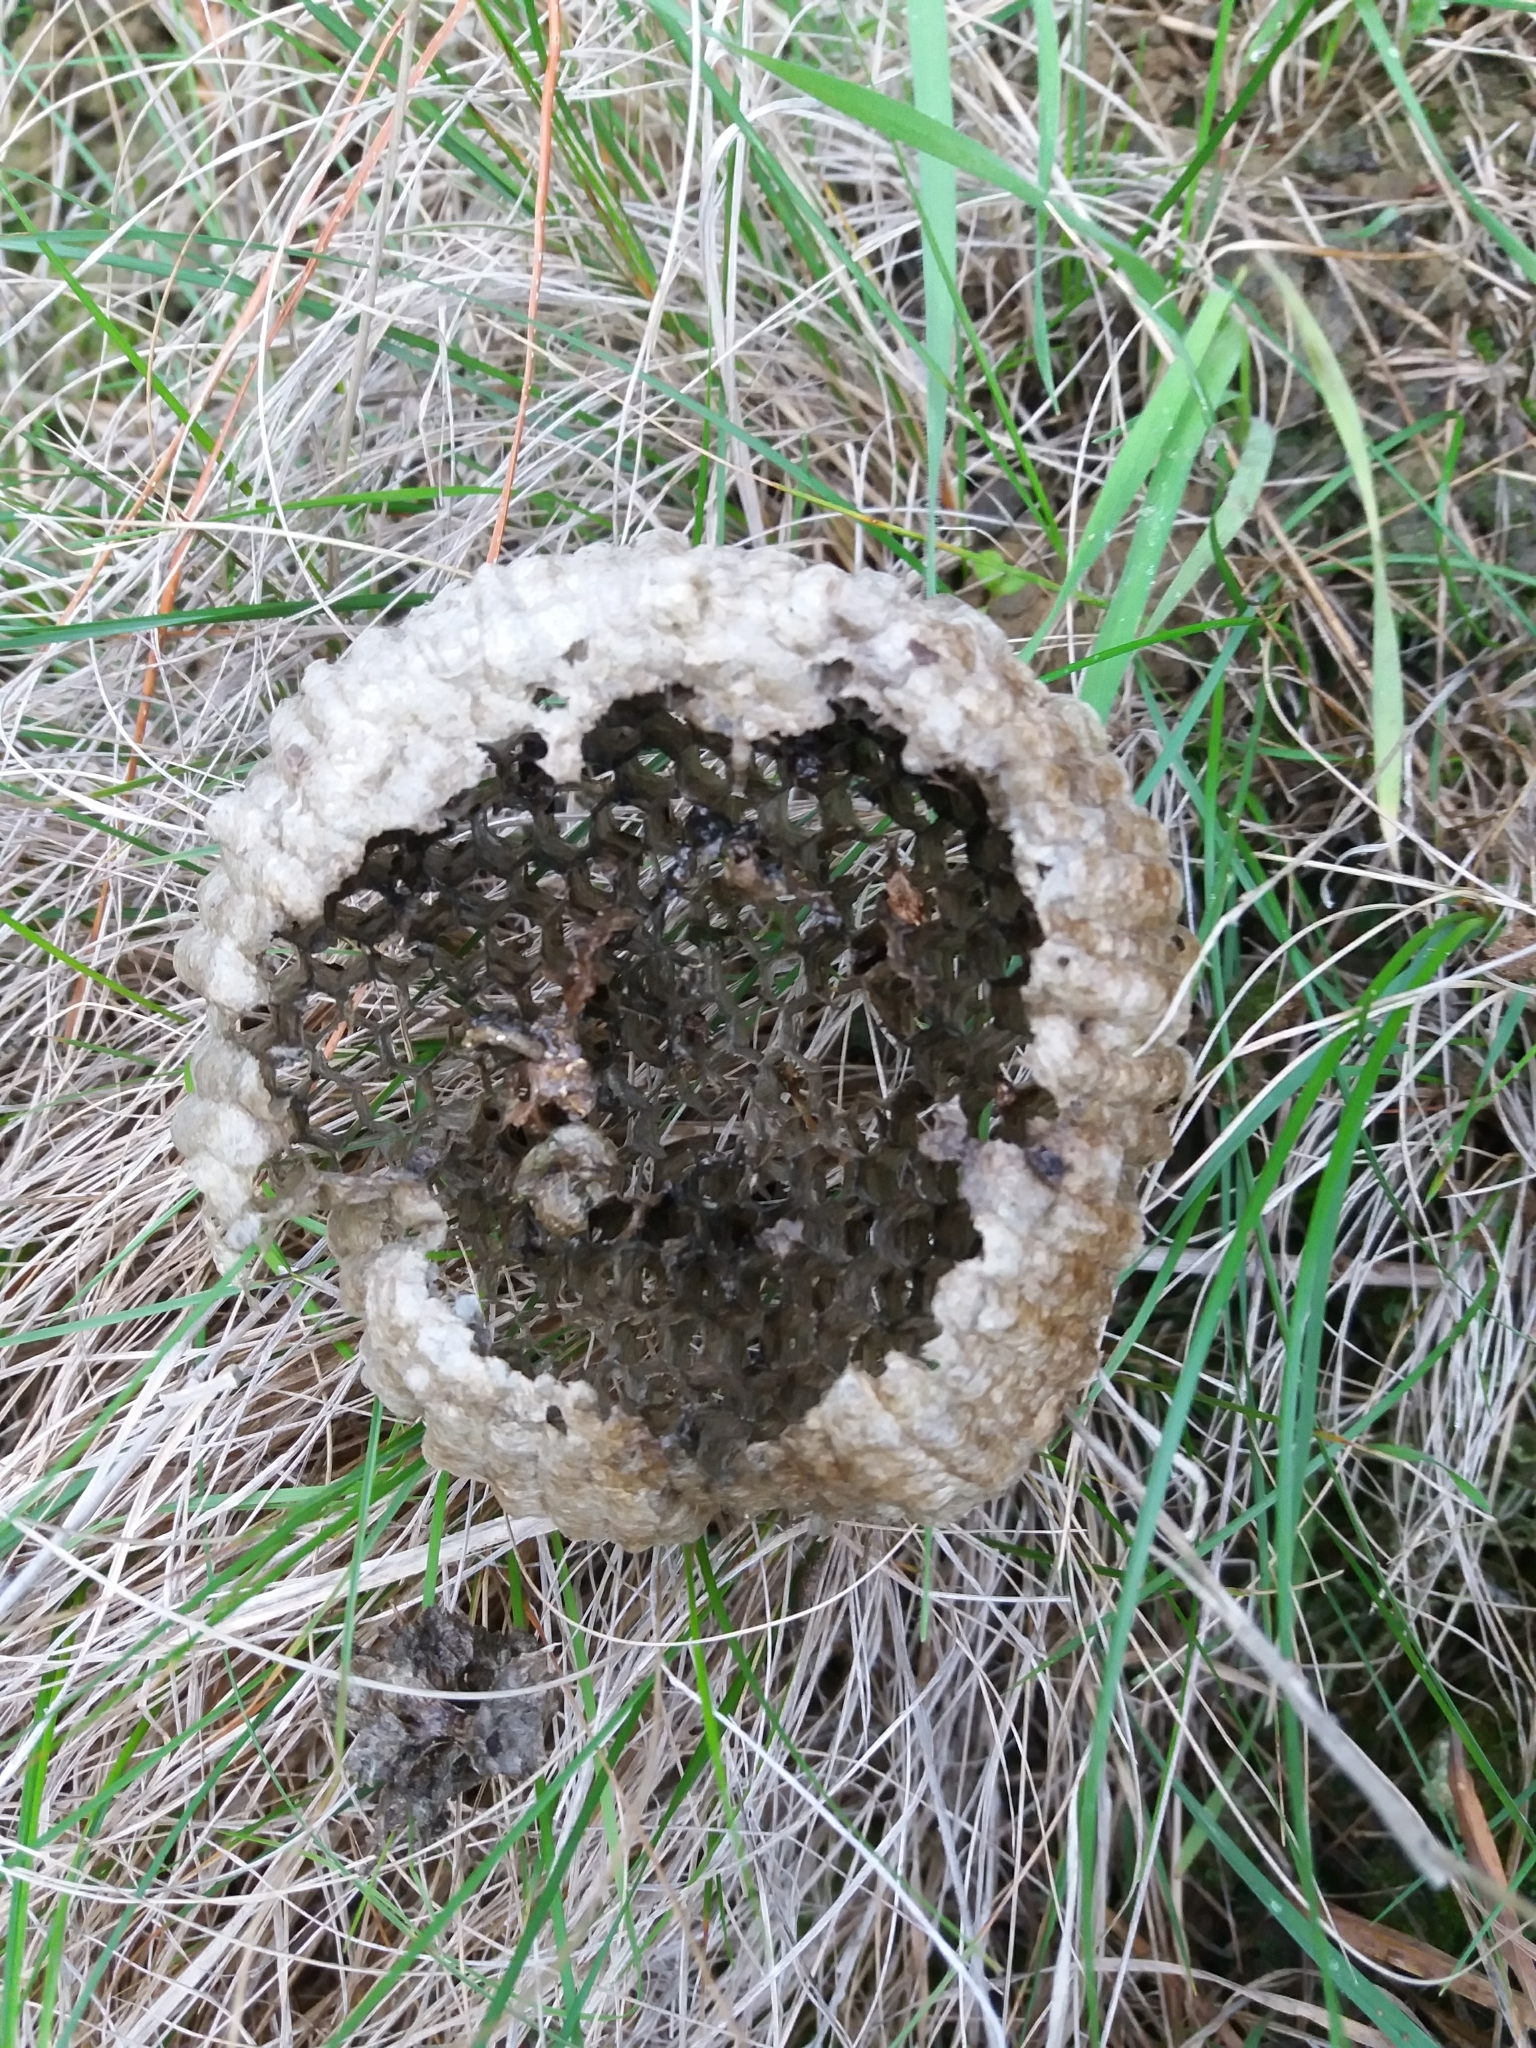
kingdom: Animalia
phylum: Arthropoda
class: Insecta
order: Hymenoptera
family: Eumenidae
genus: Polistes
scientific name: Polistes
